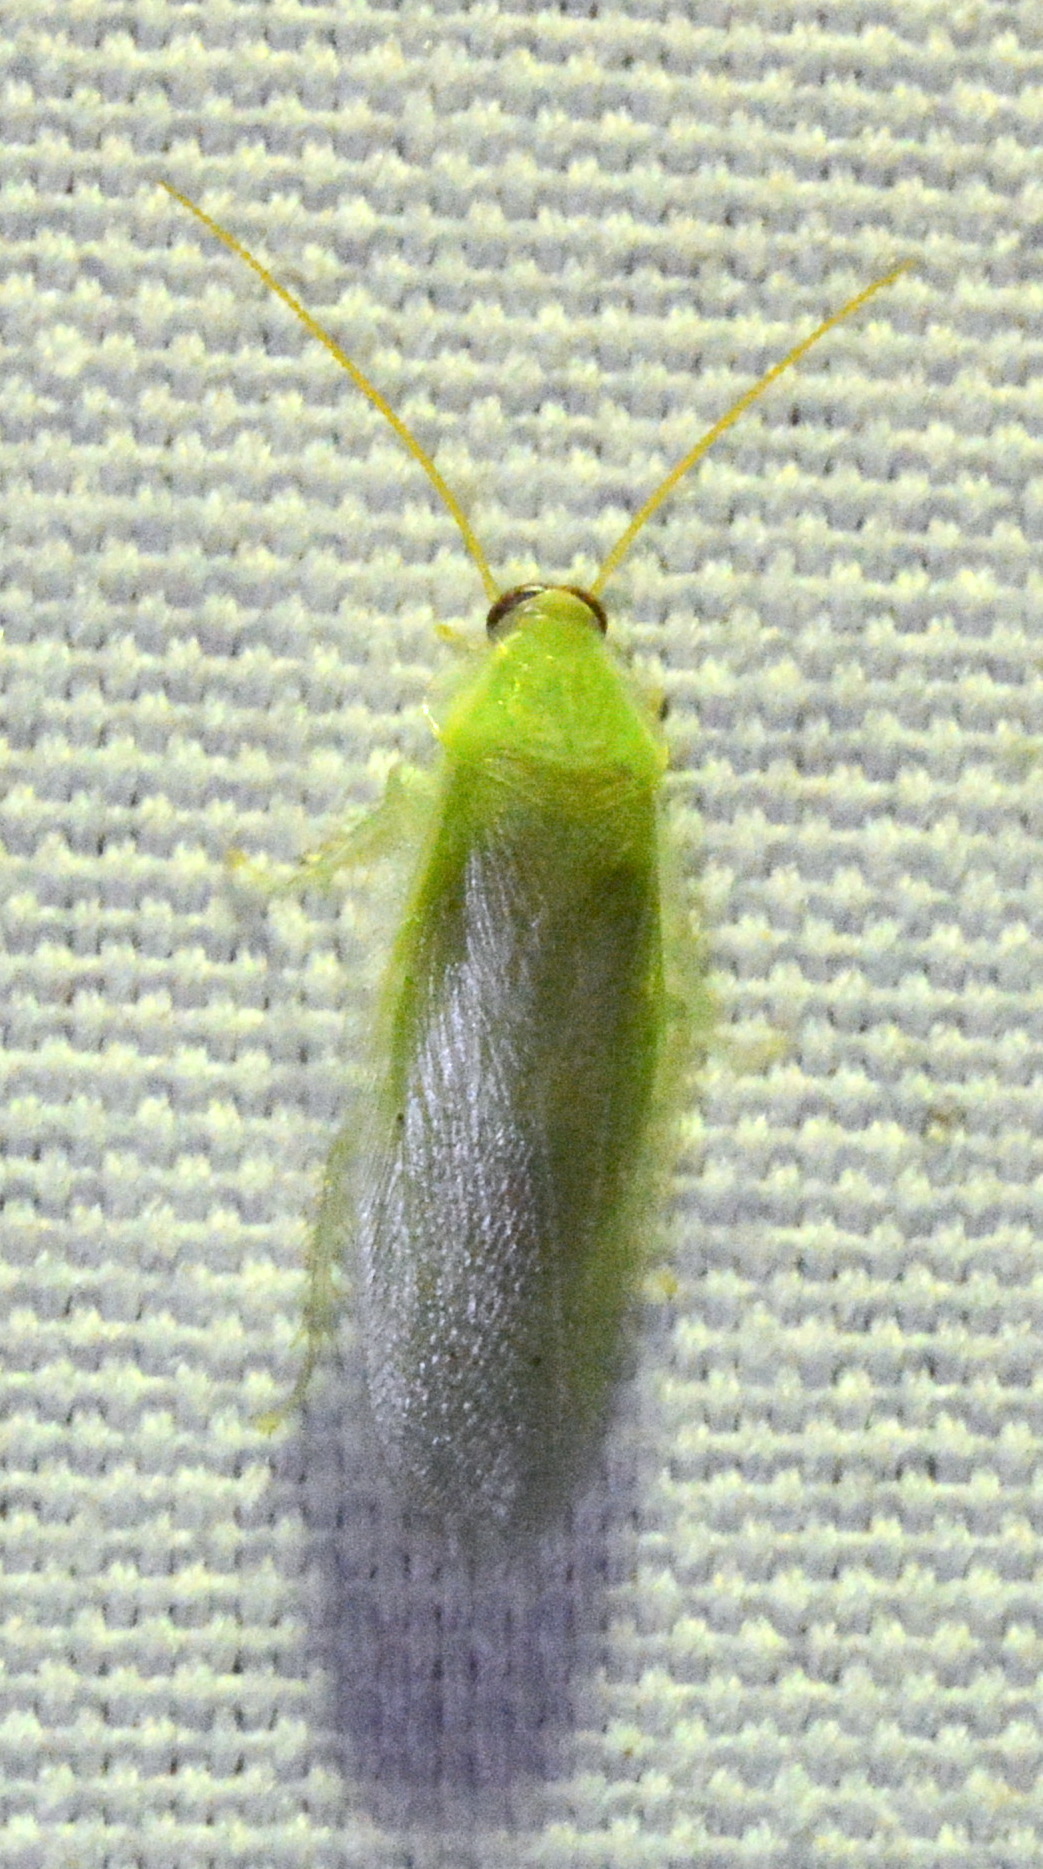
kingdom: Animalia
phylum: Arthropoda
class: Insecta
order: Blattodea
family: Blaberidae
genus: Panchlora
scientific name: Panchlora nivea
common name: Cuban cockroach
